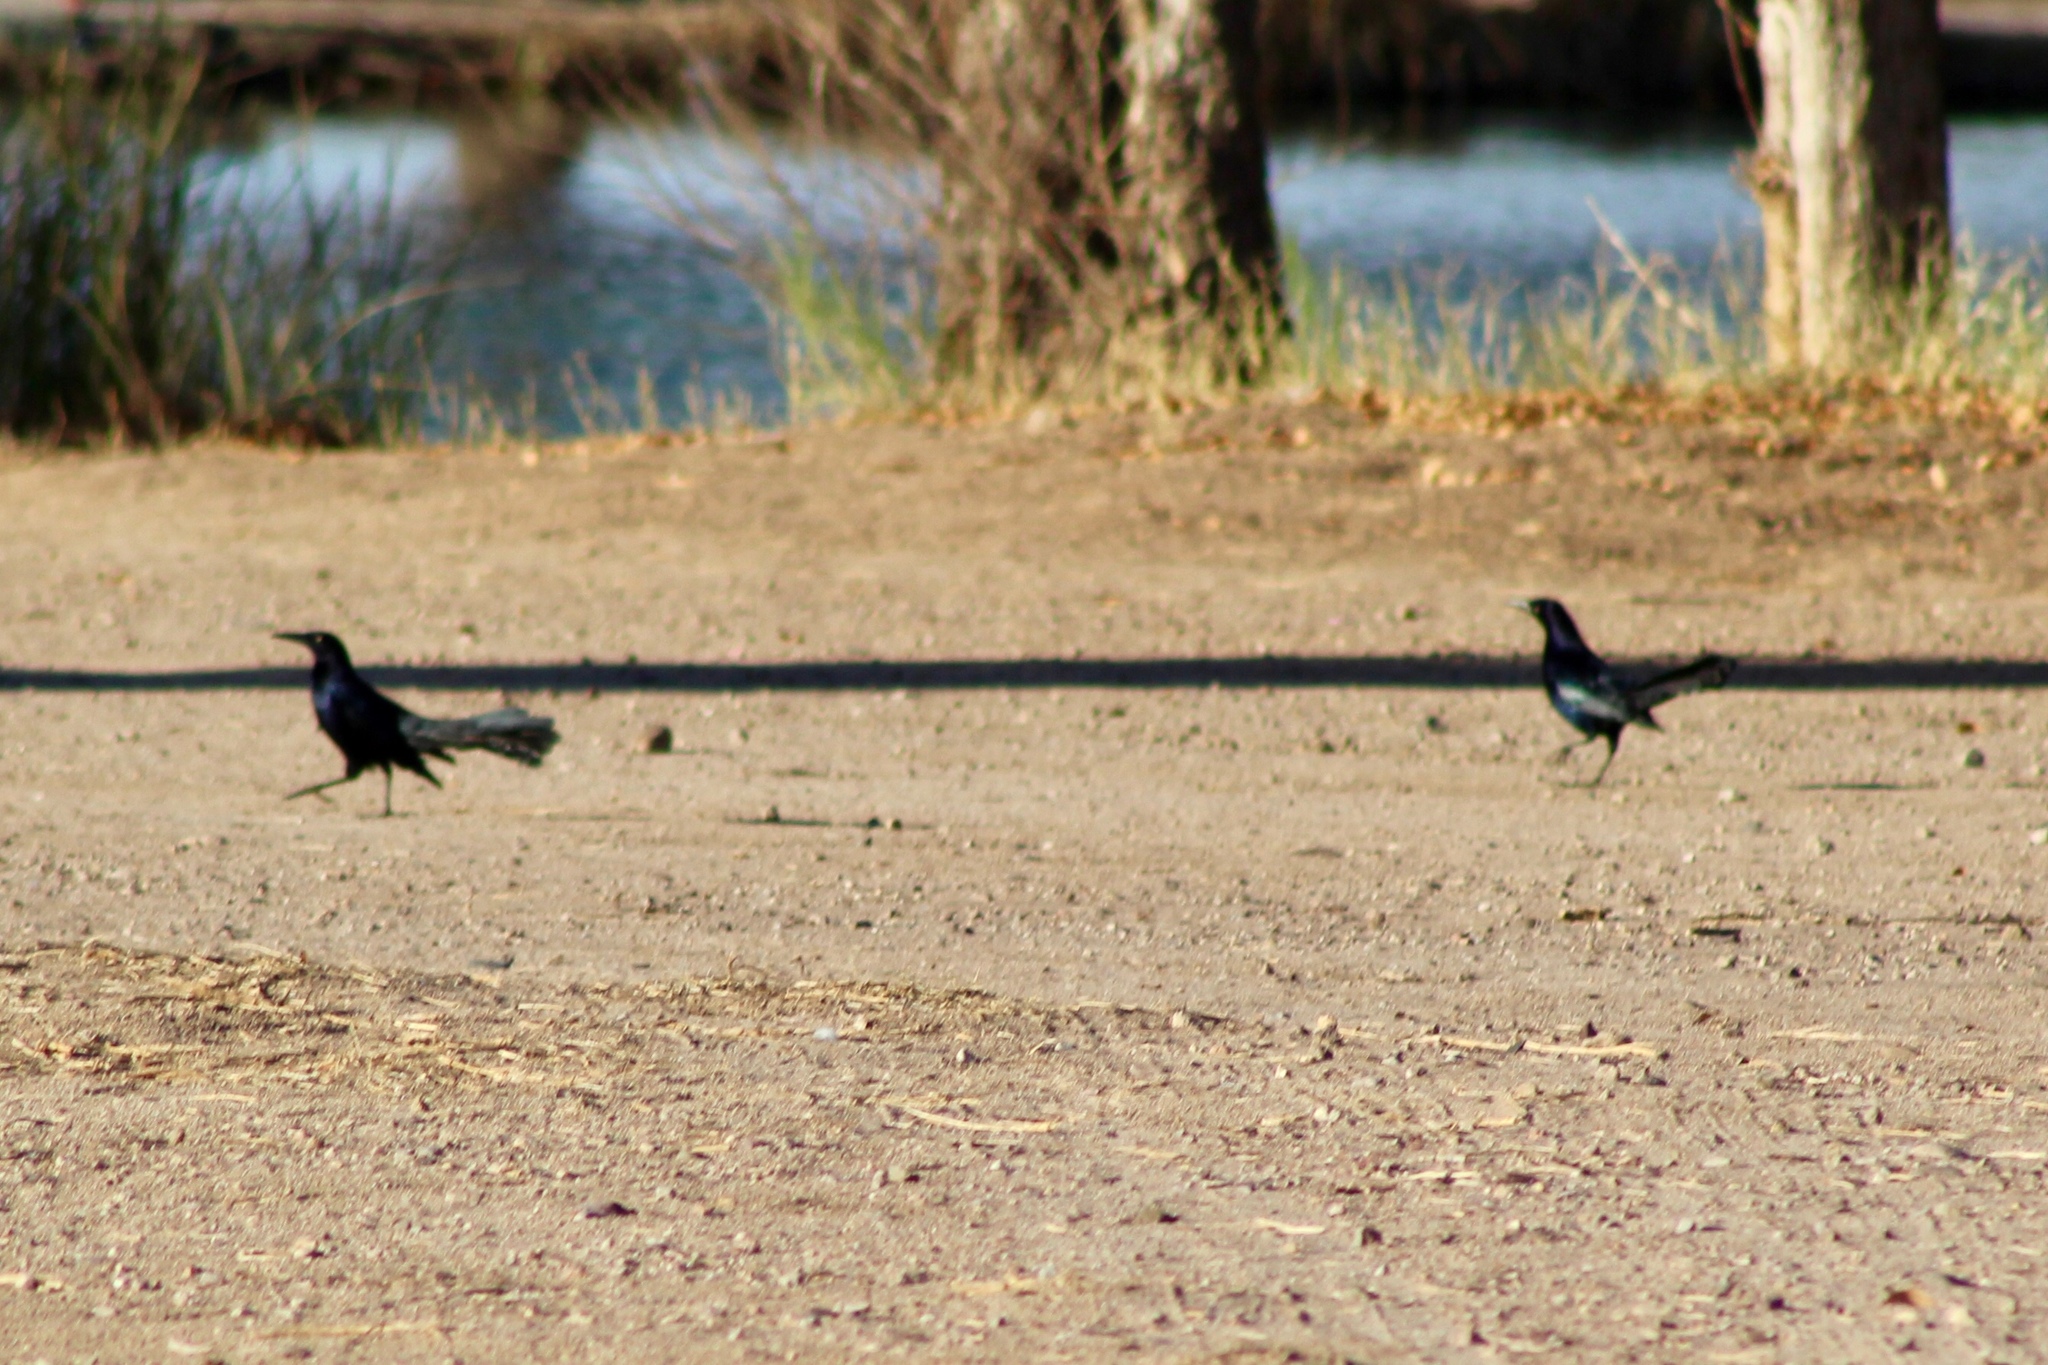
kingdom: Animalia
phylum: Chordata
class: Aves
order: Passeriformes
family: Icteridae
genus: Quiscalus
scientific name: Quiscalus mexicanus
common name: Great-tailed grackle
